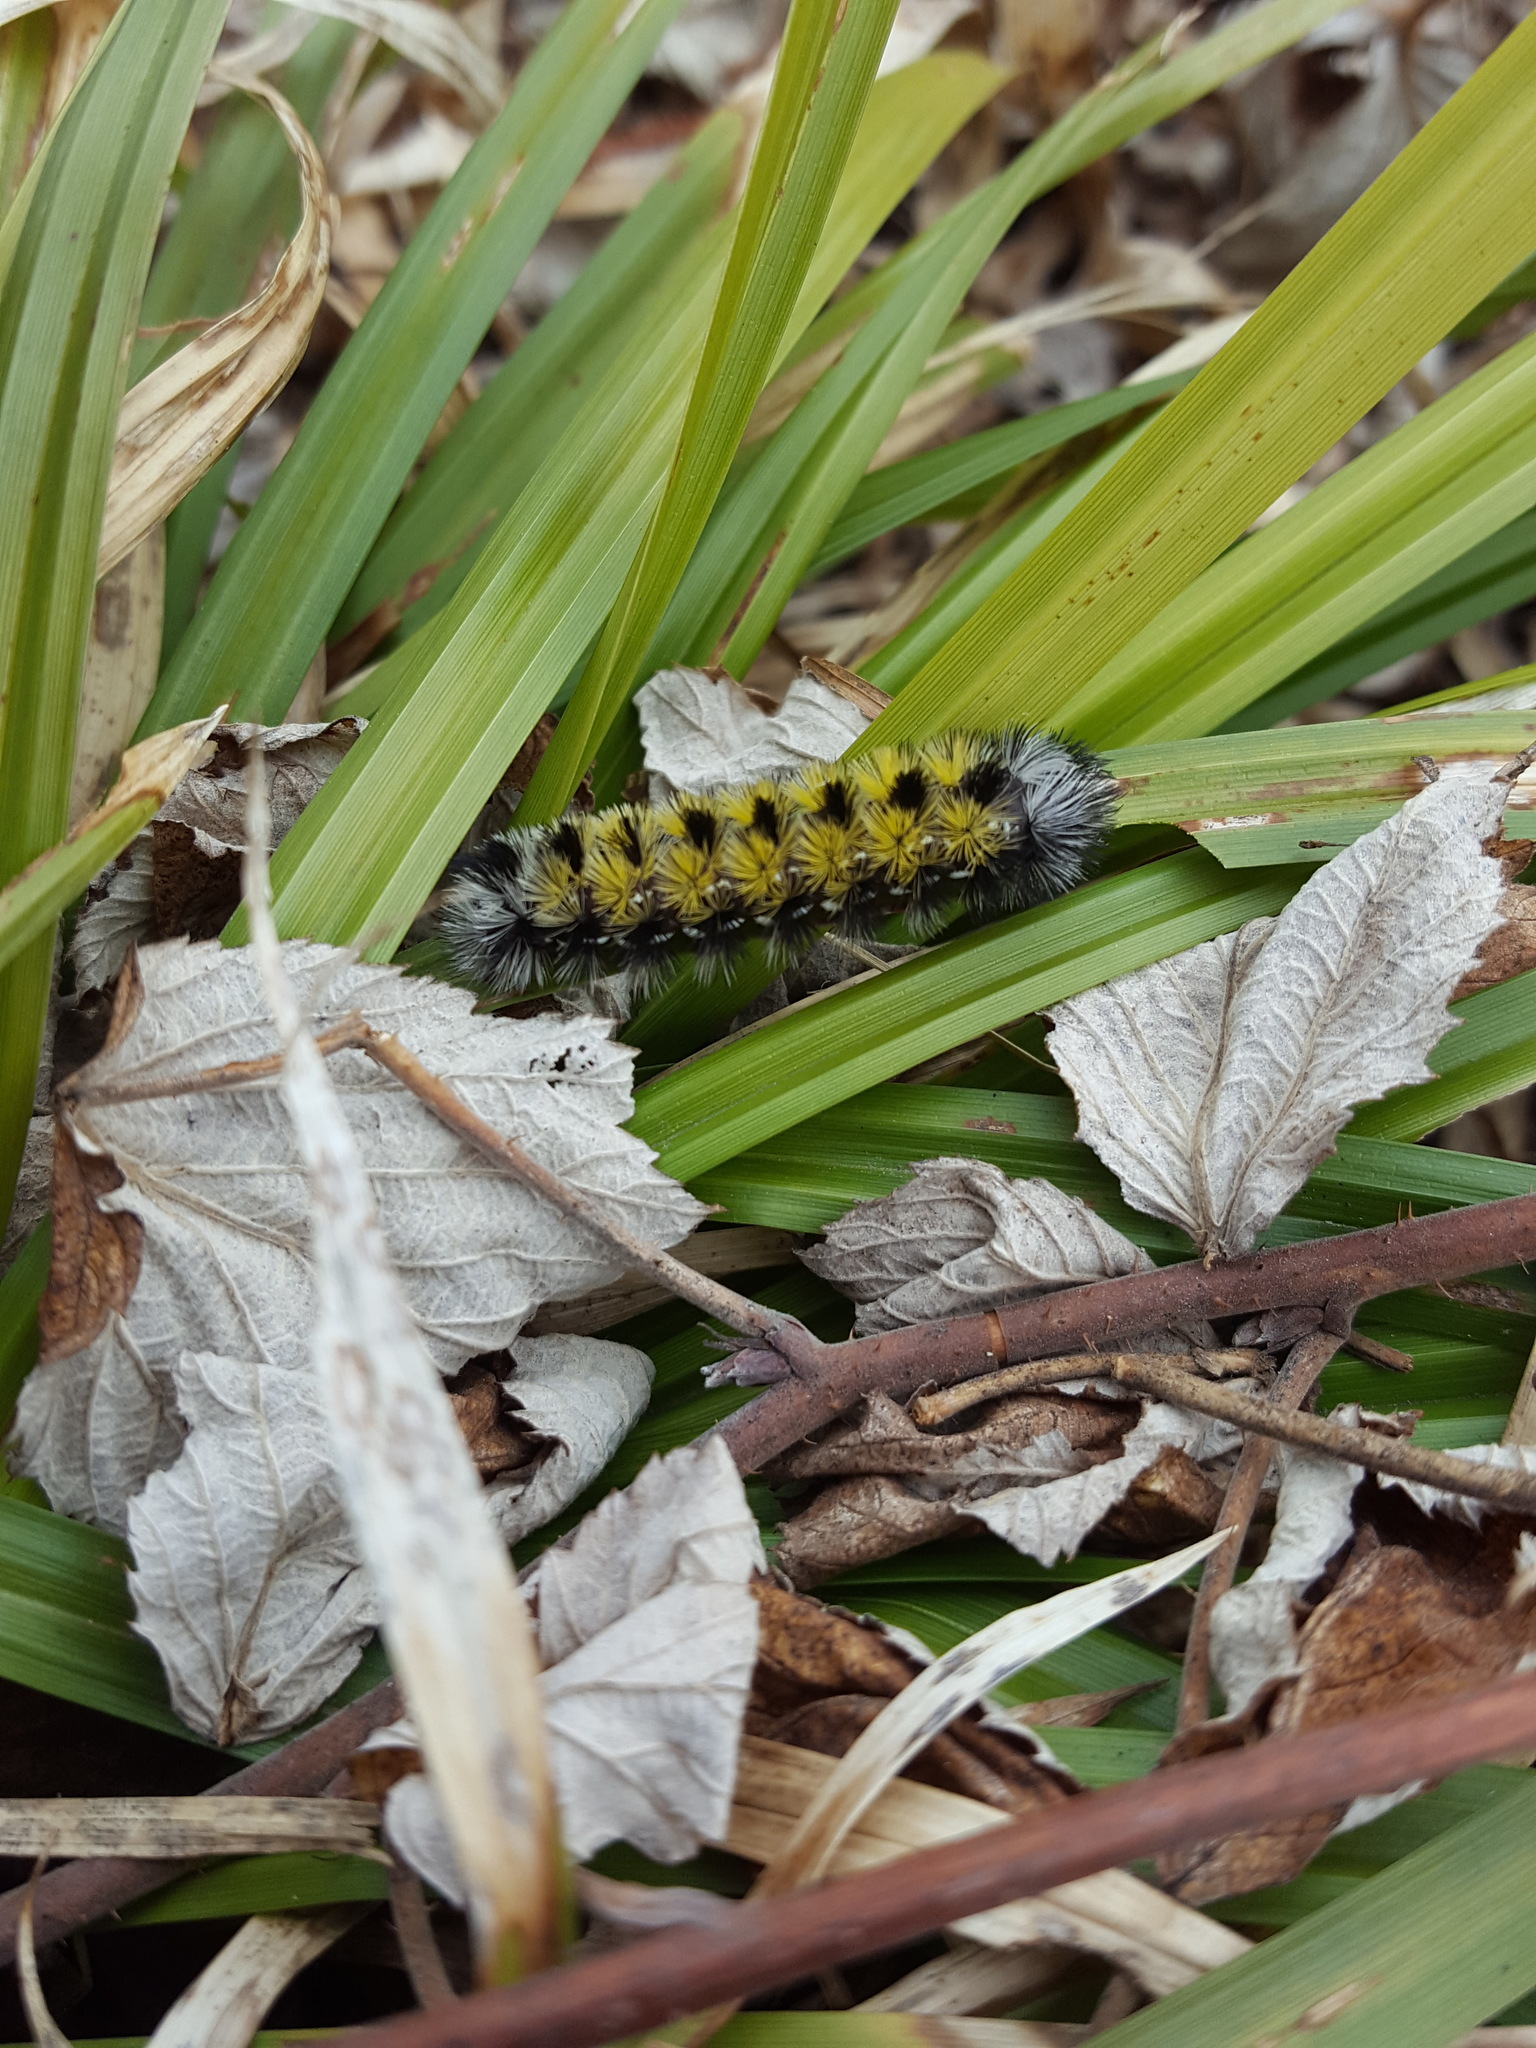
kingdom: Animalia
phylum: Arthropoda
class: Insecta
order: Lepidoptera
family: Erebidae
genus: Ctenucha
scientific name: Ctenucha virginica
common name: Virginia ctenucha moth
